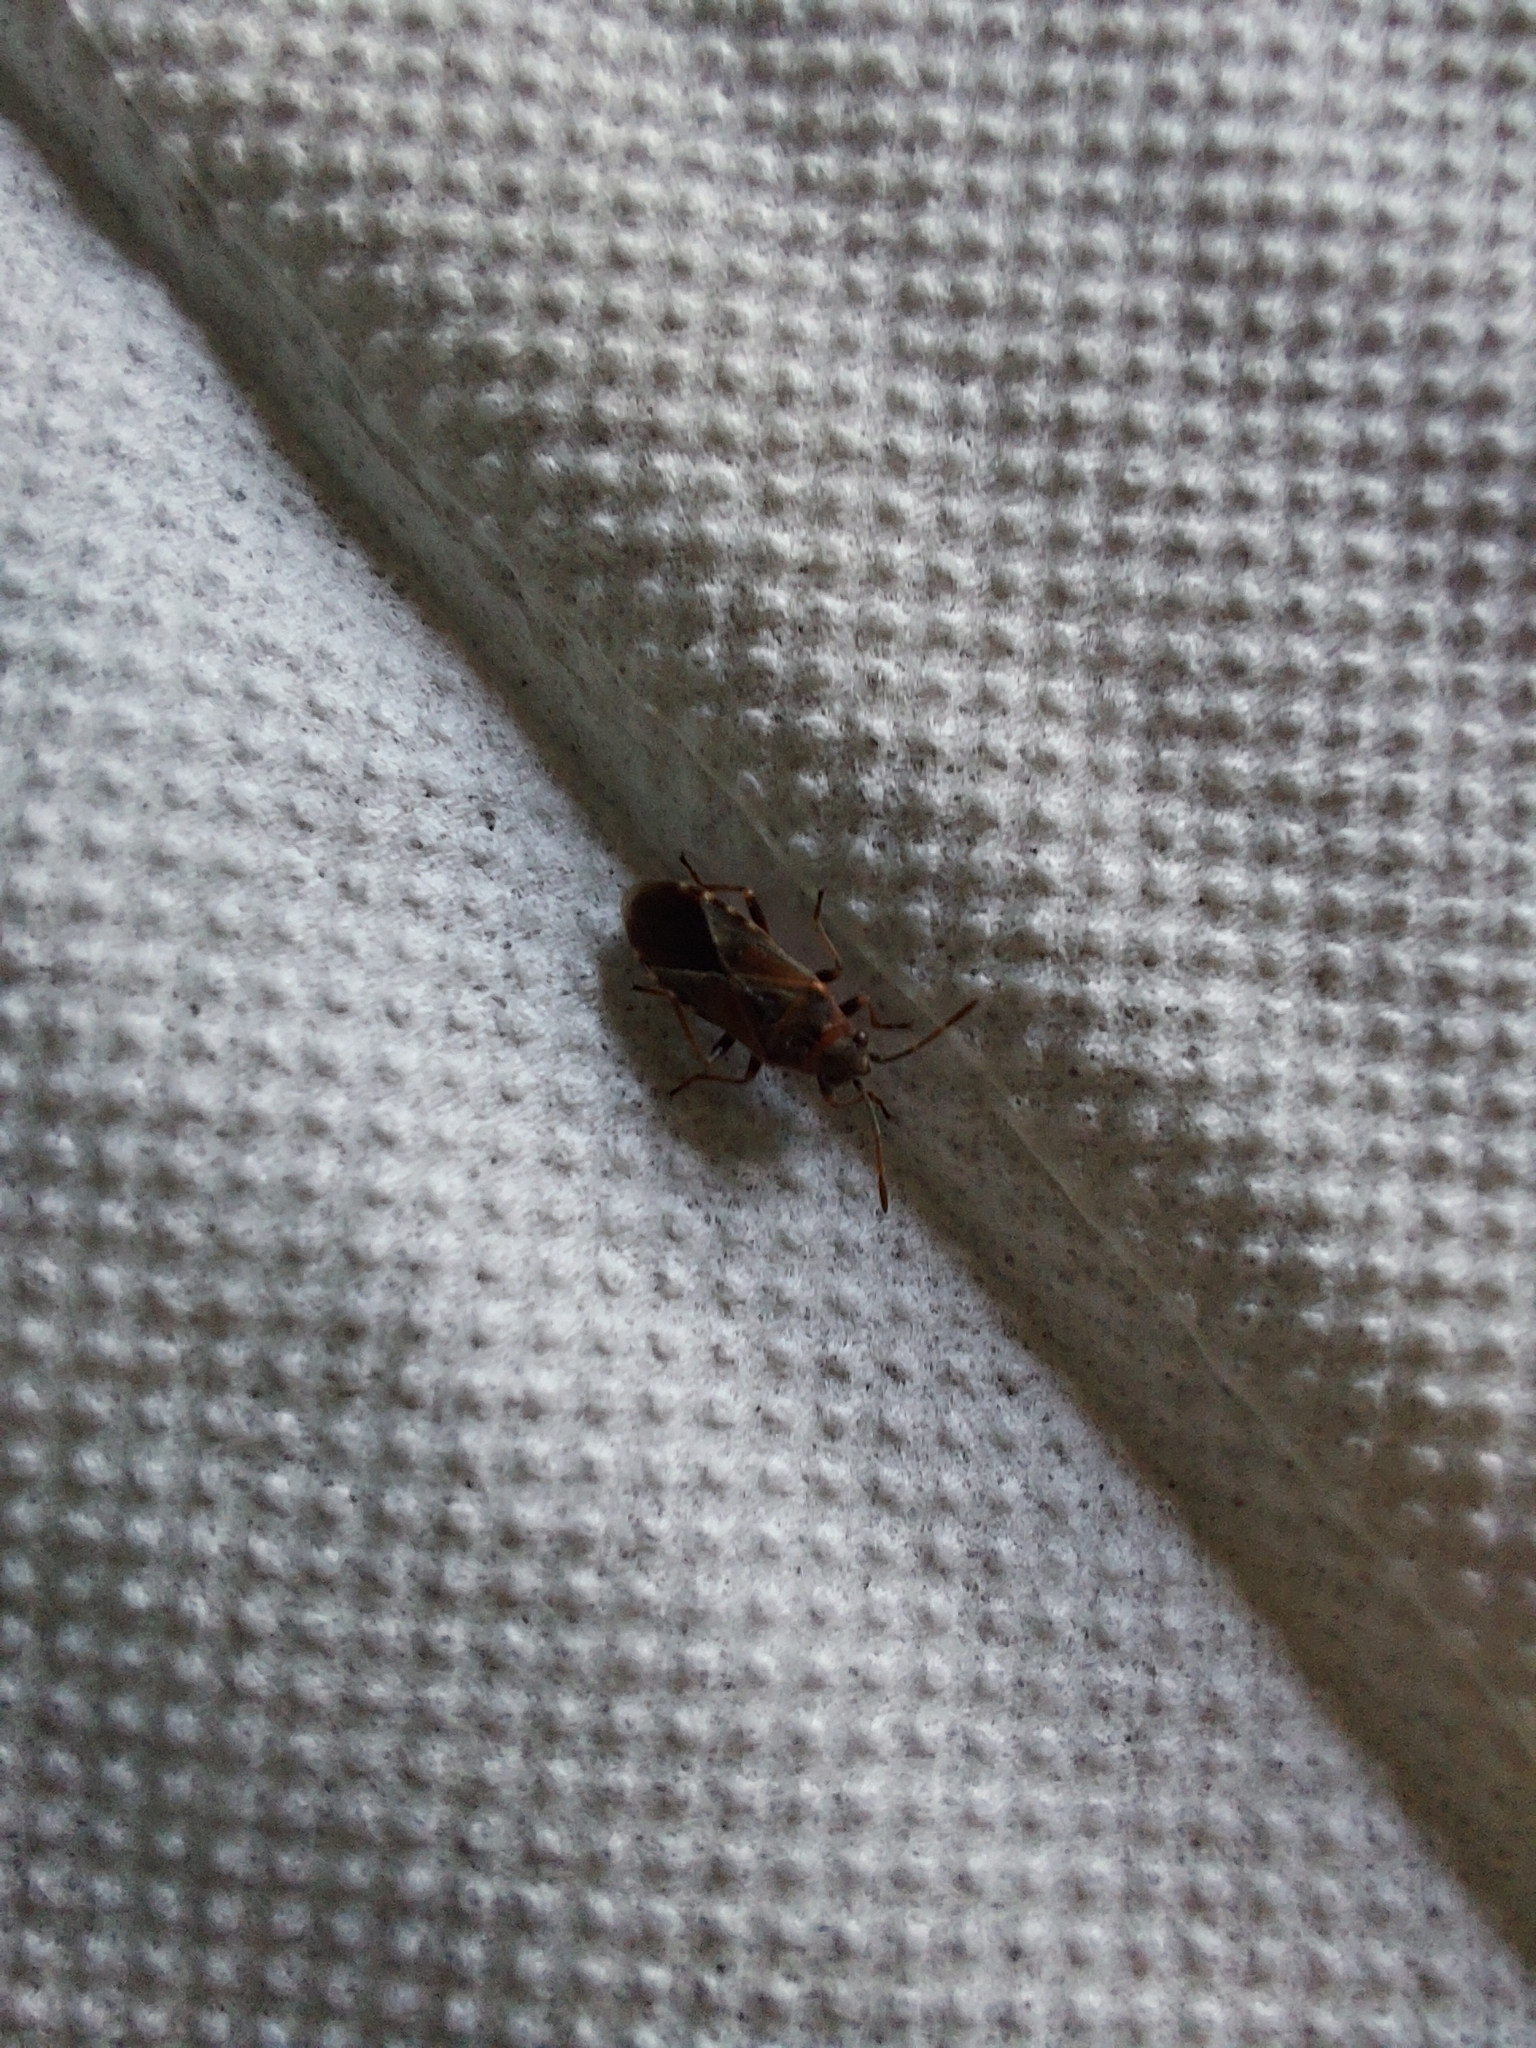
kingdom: Animalia
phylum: Arthropoda
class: Insecta
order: Hemiptera
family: Lygaeidae
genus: Arocatus
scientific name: Arocatus melanocephalus
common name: Lygaeid bug
